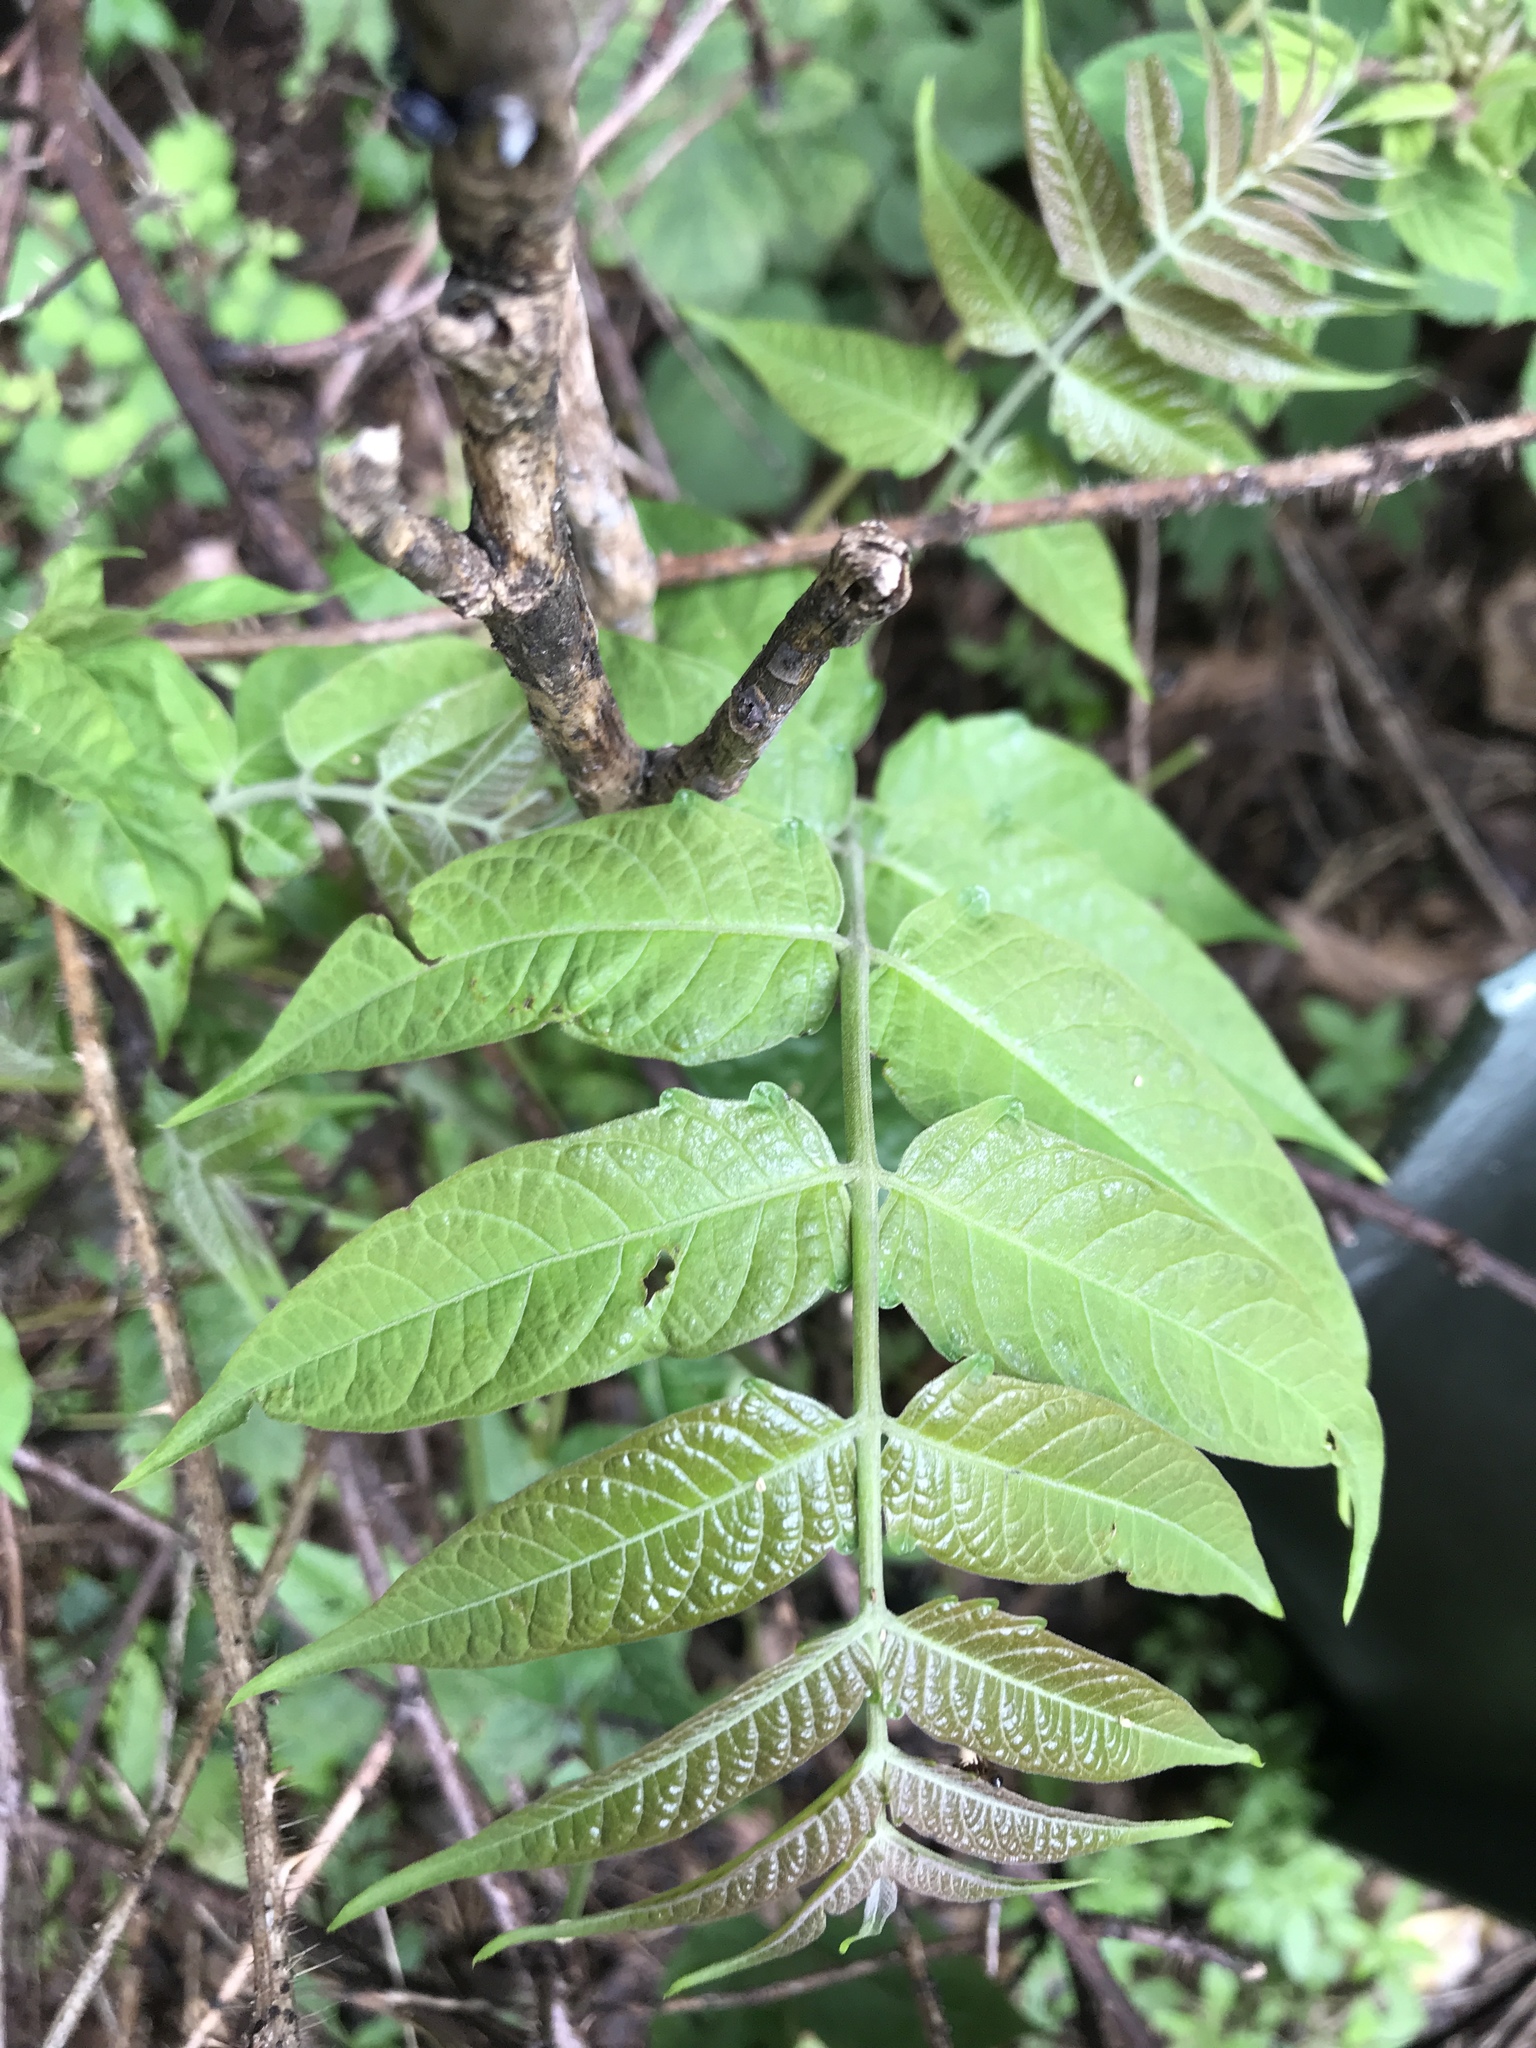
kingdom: Plantae
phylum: Tracheophyta
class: Magnoliopsida
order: Sapindales
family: Simaroubaceae
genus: Ailanthus
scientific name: Ailanthus altissima
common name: Tree-of-heaven
